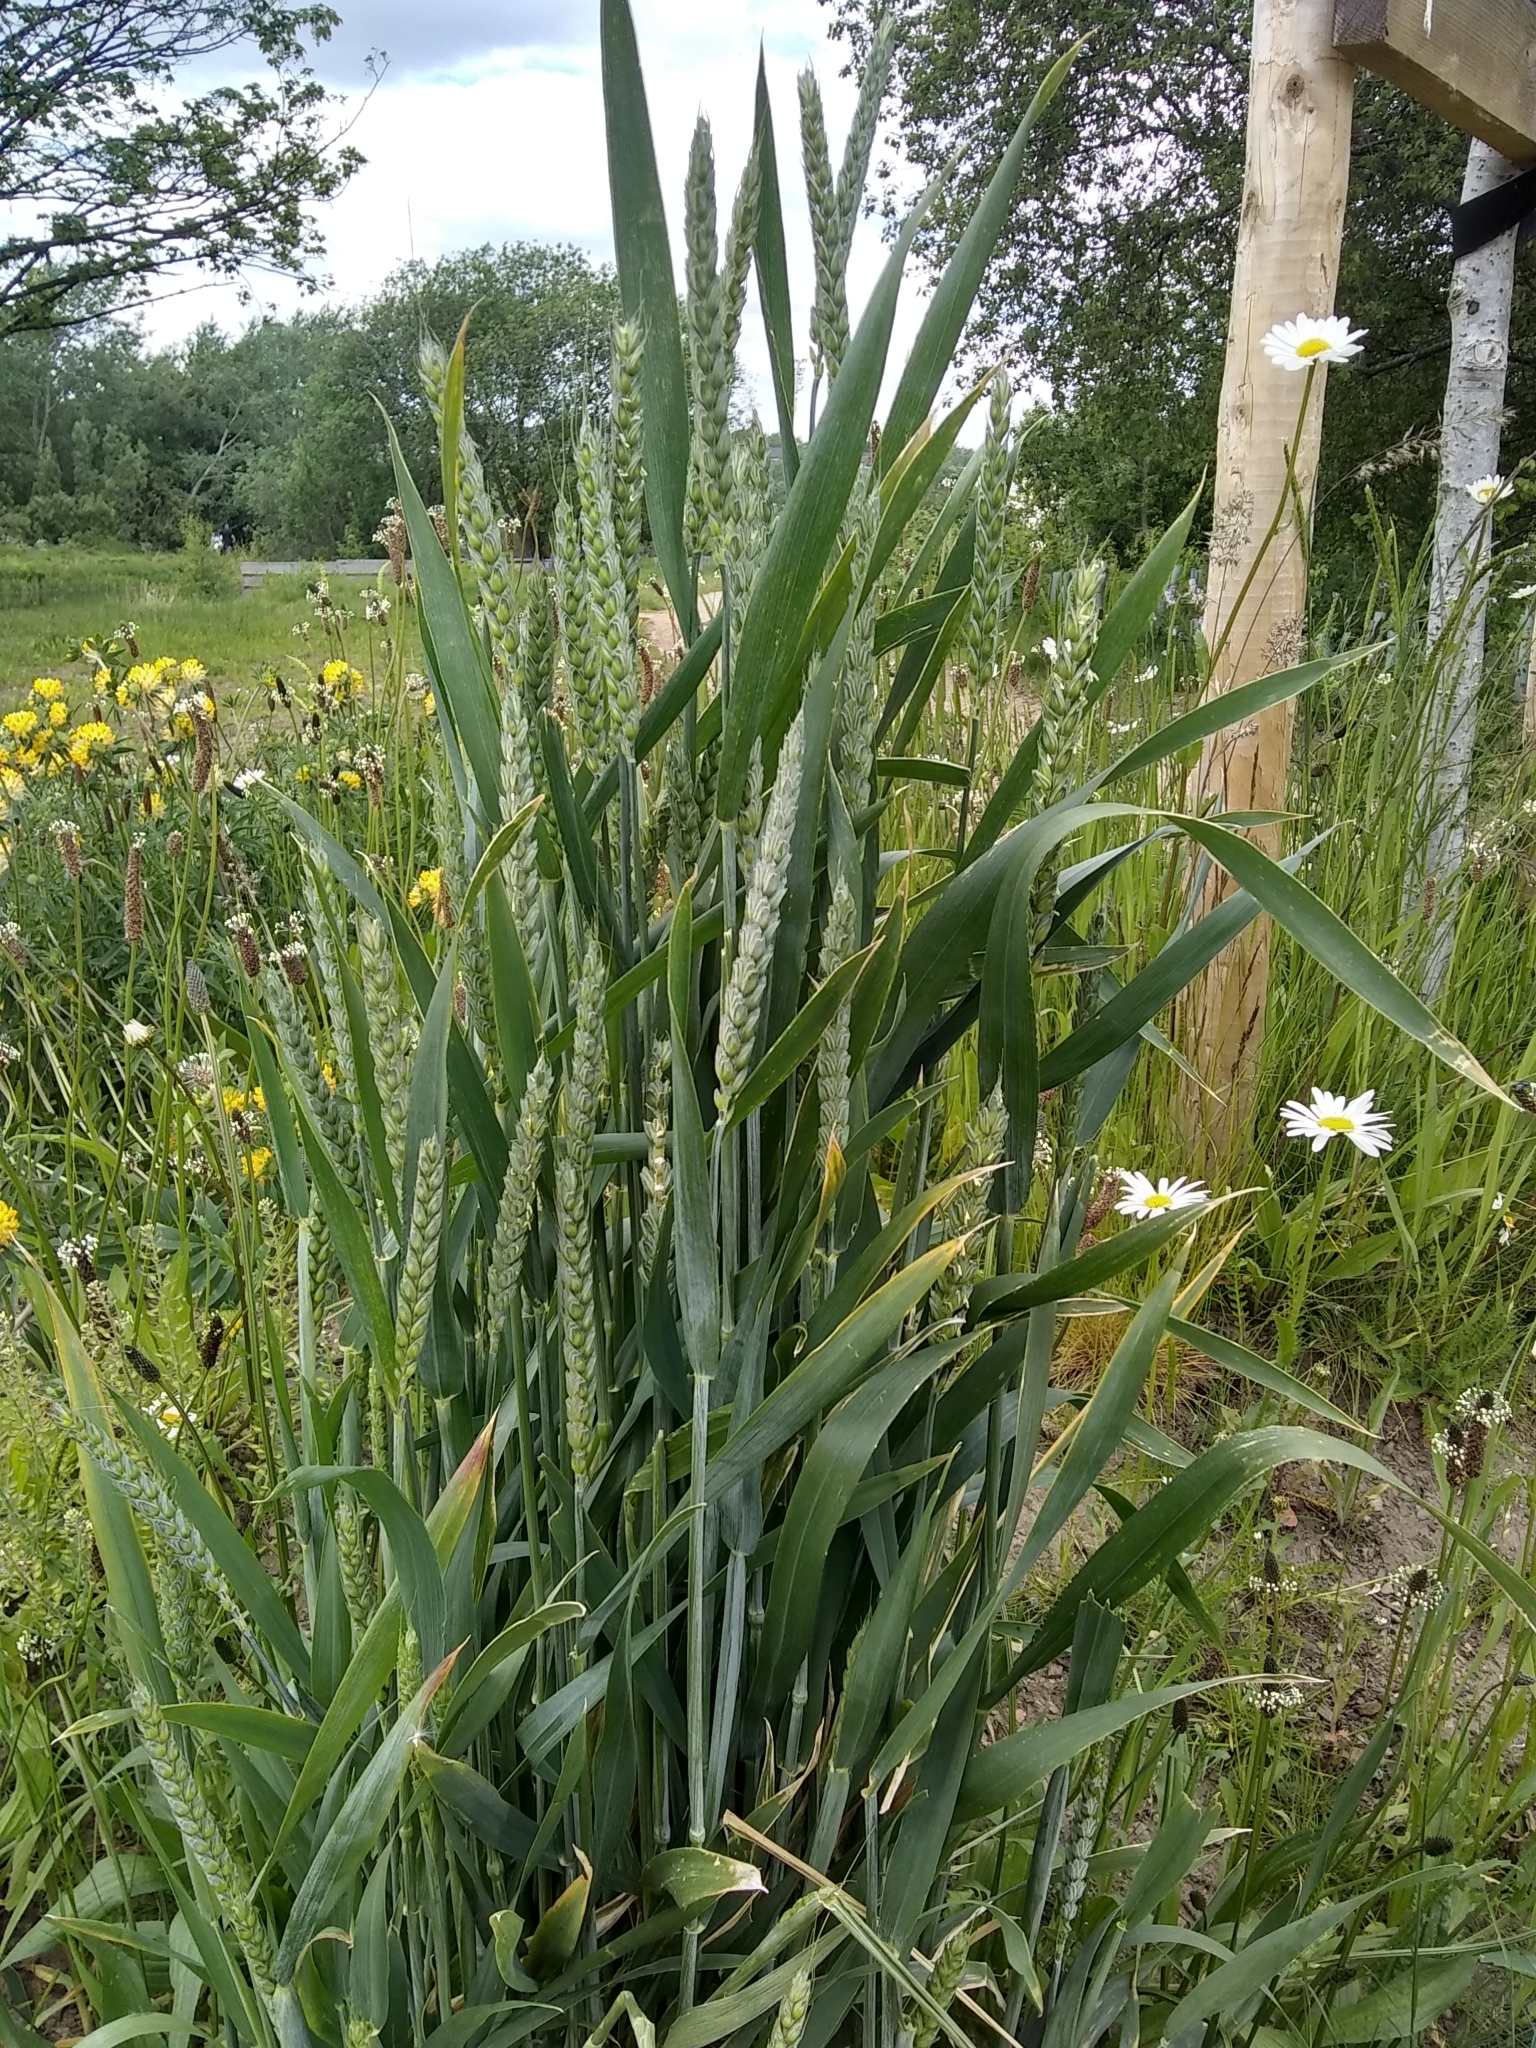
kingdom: Plantae
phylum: Tracheophyta
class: Liliopsida
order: Poales
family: Poaceae
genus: Triticum
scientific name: Triticum aestivum
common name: Common wheat
